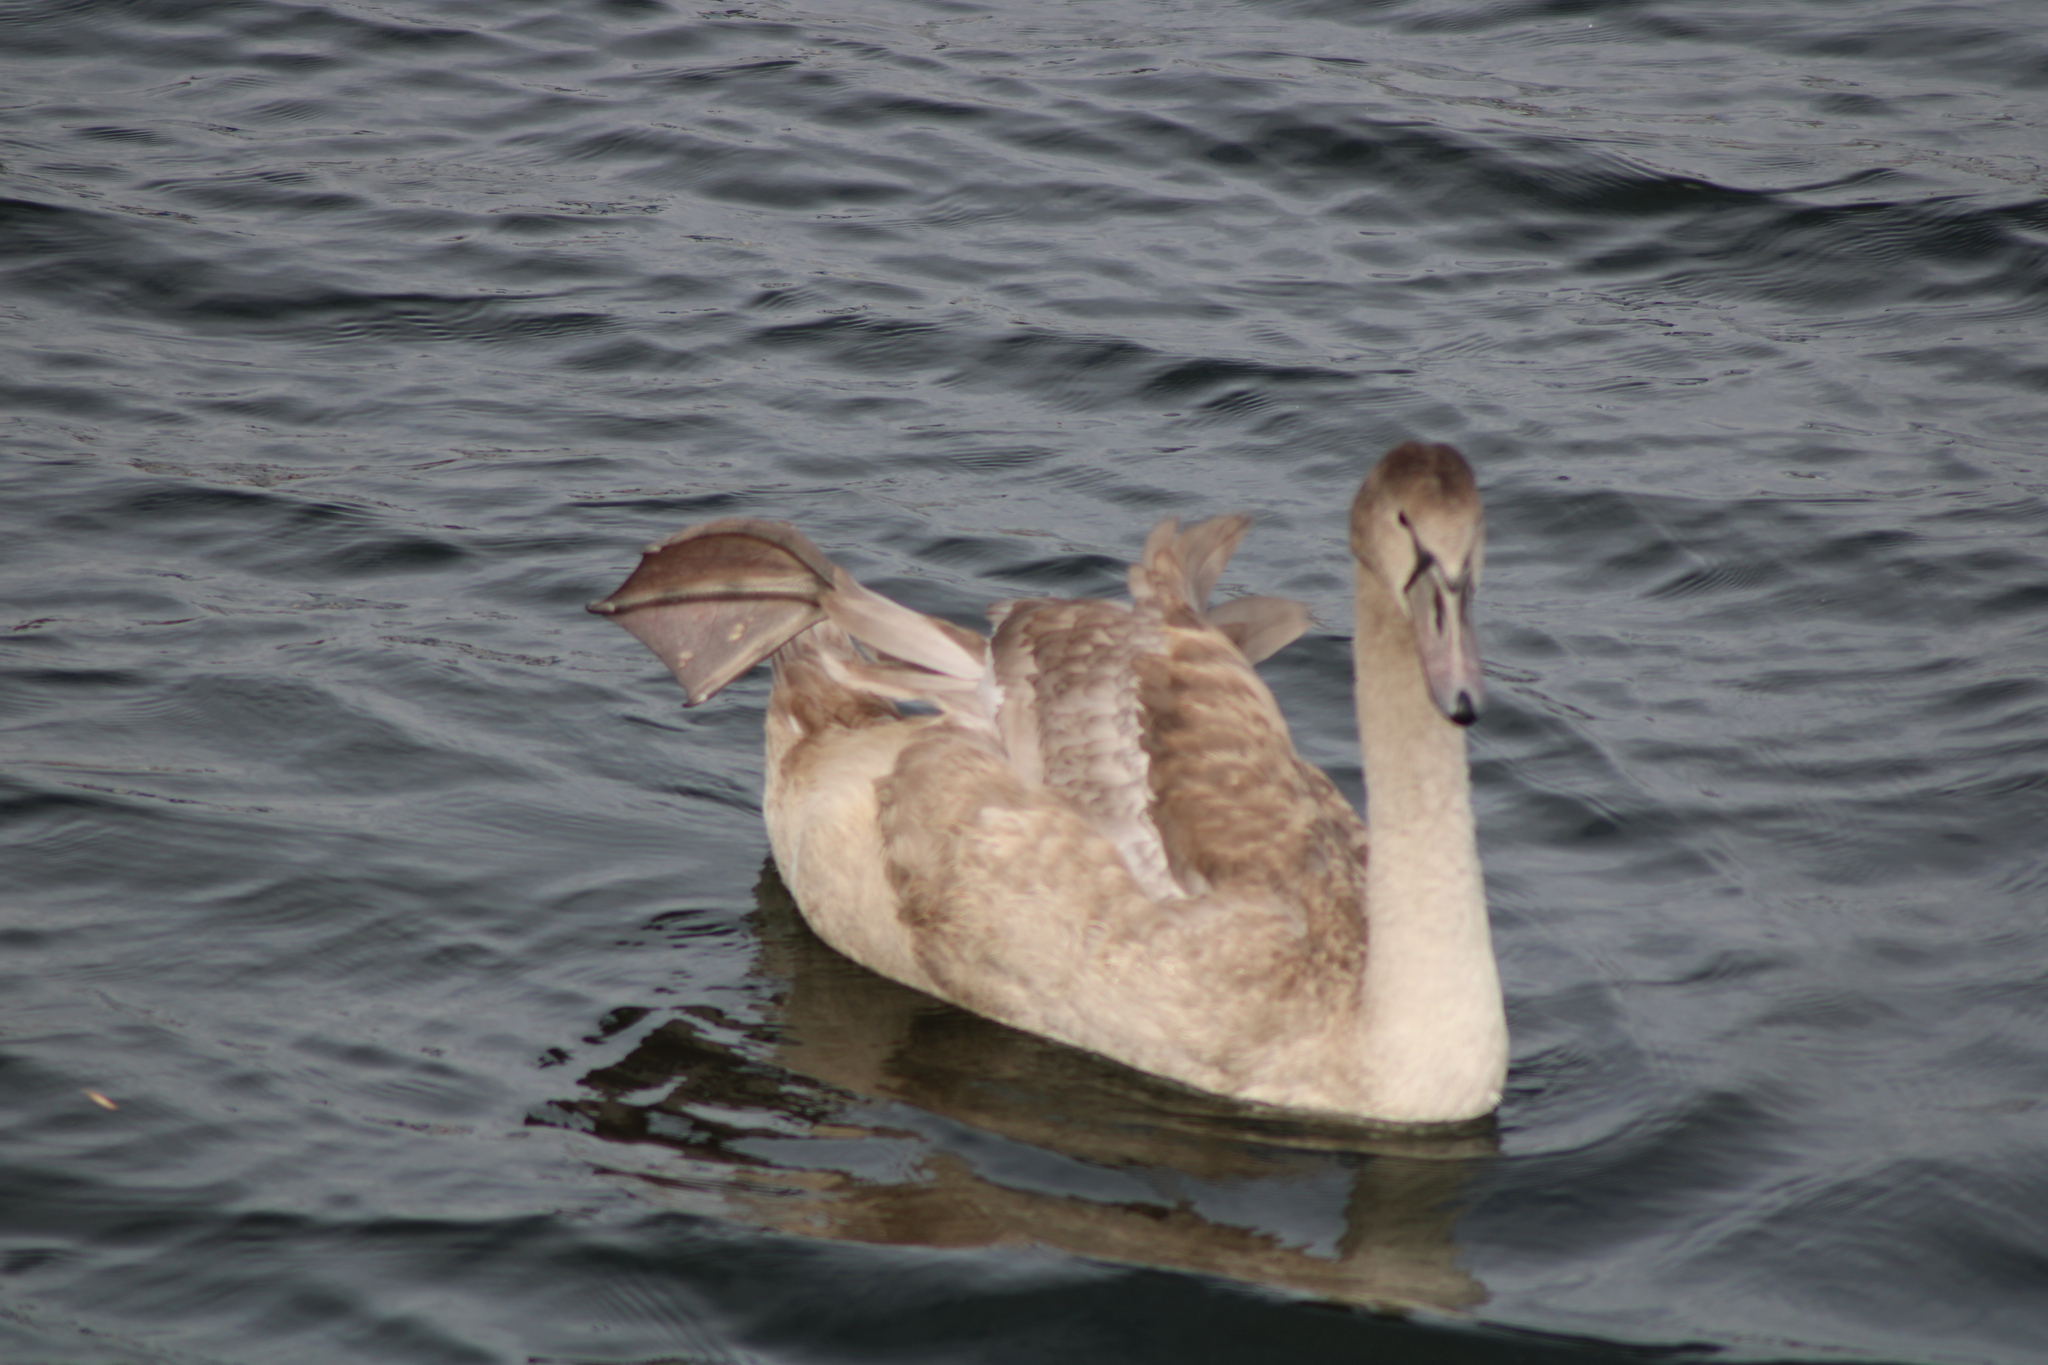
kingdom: Animalia
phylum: Chordata
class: Aves
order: Anseriformes
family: Anatidae
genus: Cygnus
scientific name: Cygnus olor
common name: Mute swan
